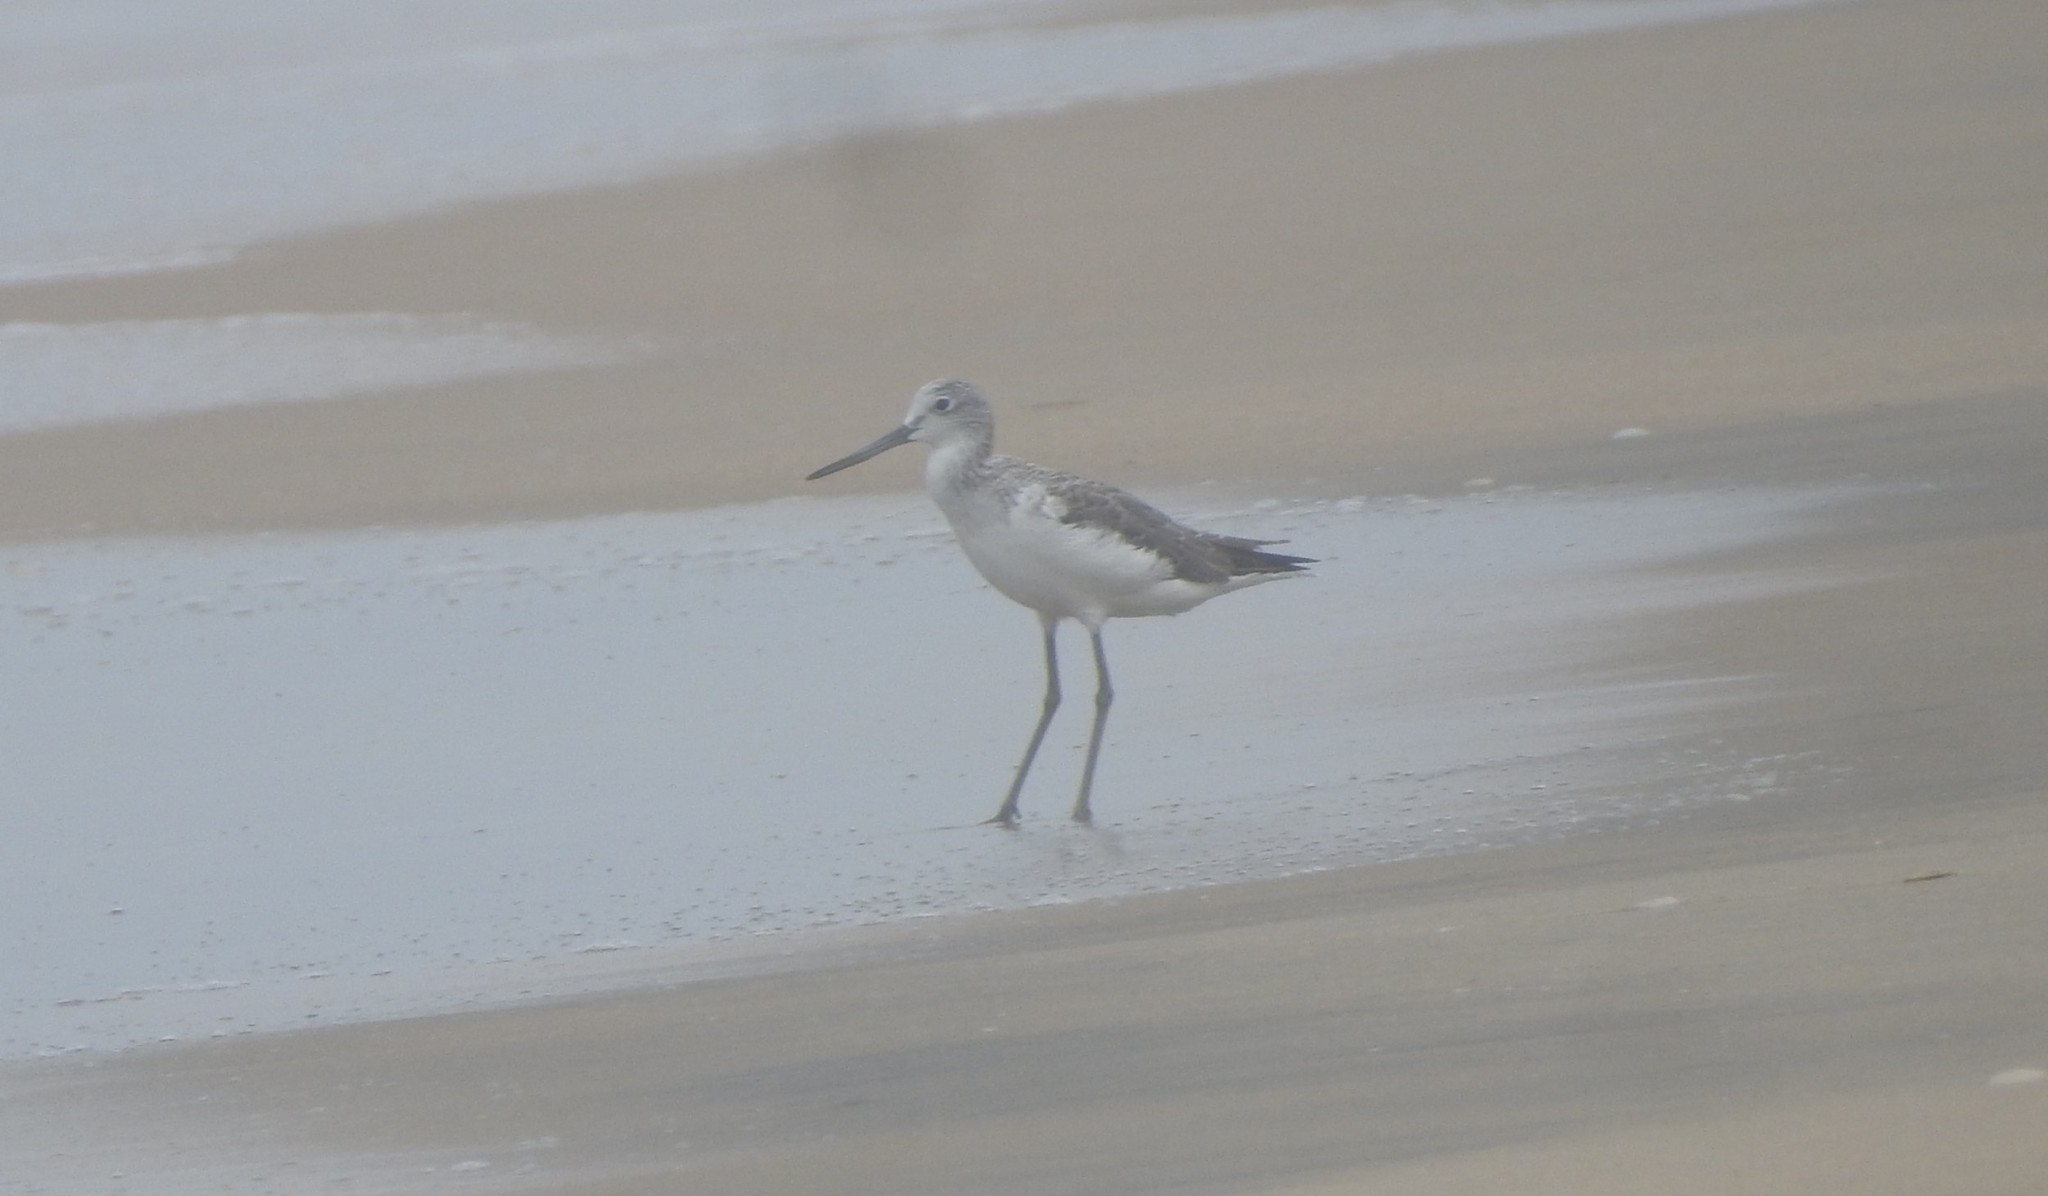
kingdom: Animalia
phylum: Chordata
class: Aves
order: Charadriiformes
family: Scolopacidae
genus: Tringa
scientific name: Tringa nebularia
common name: Common greenshank
